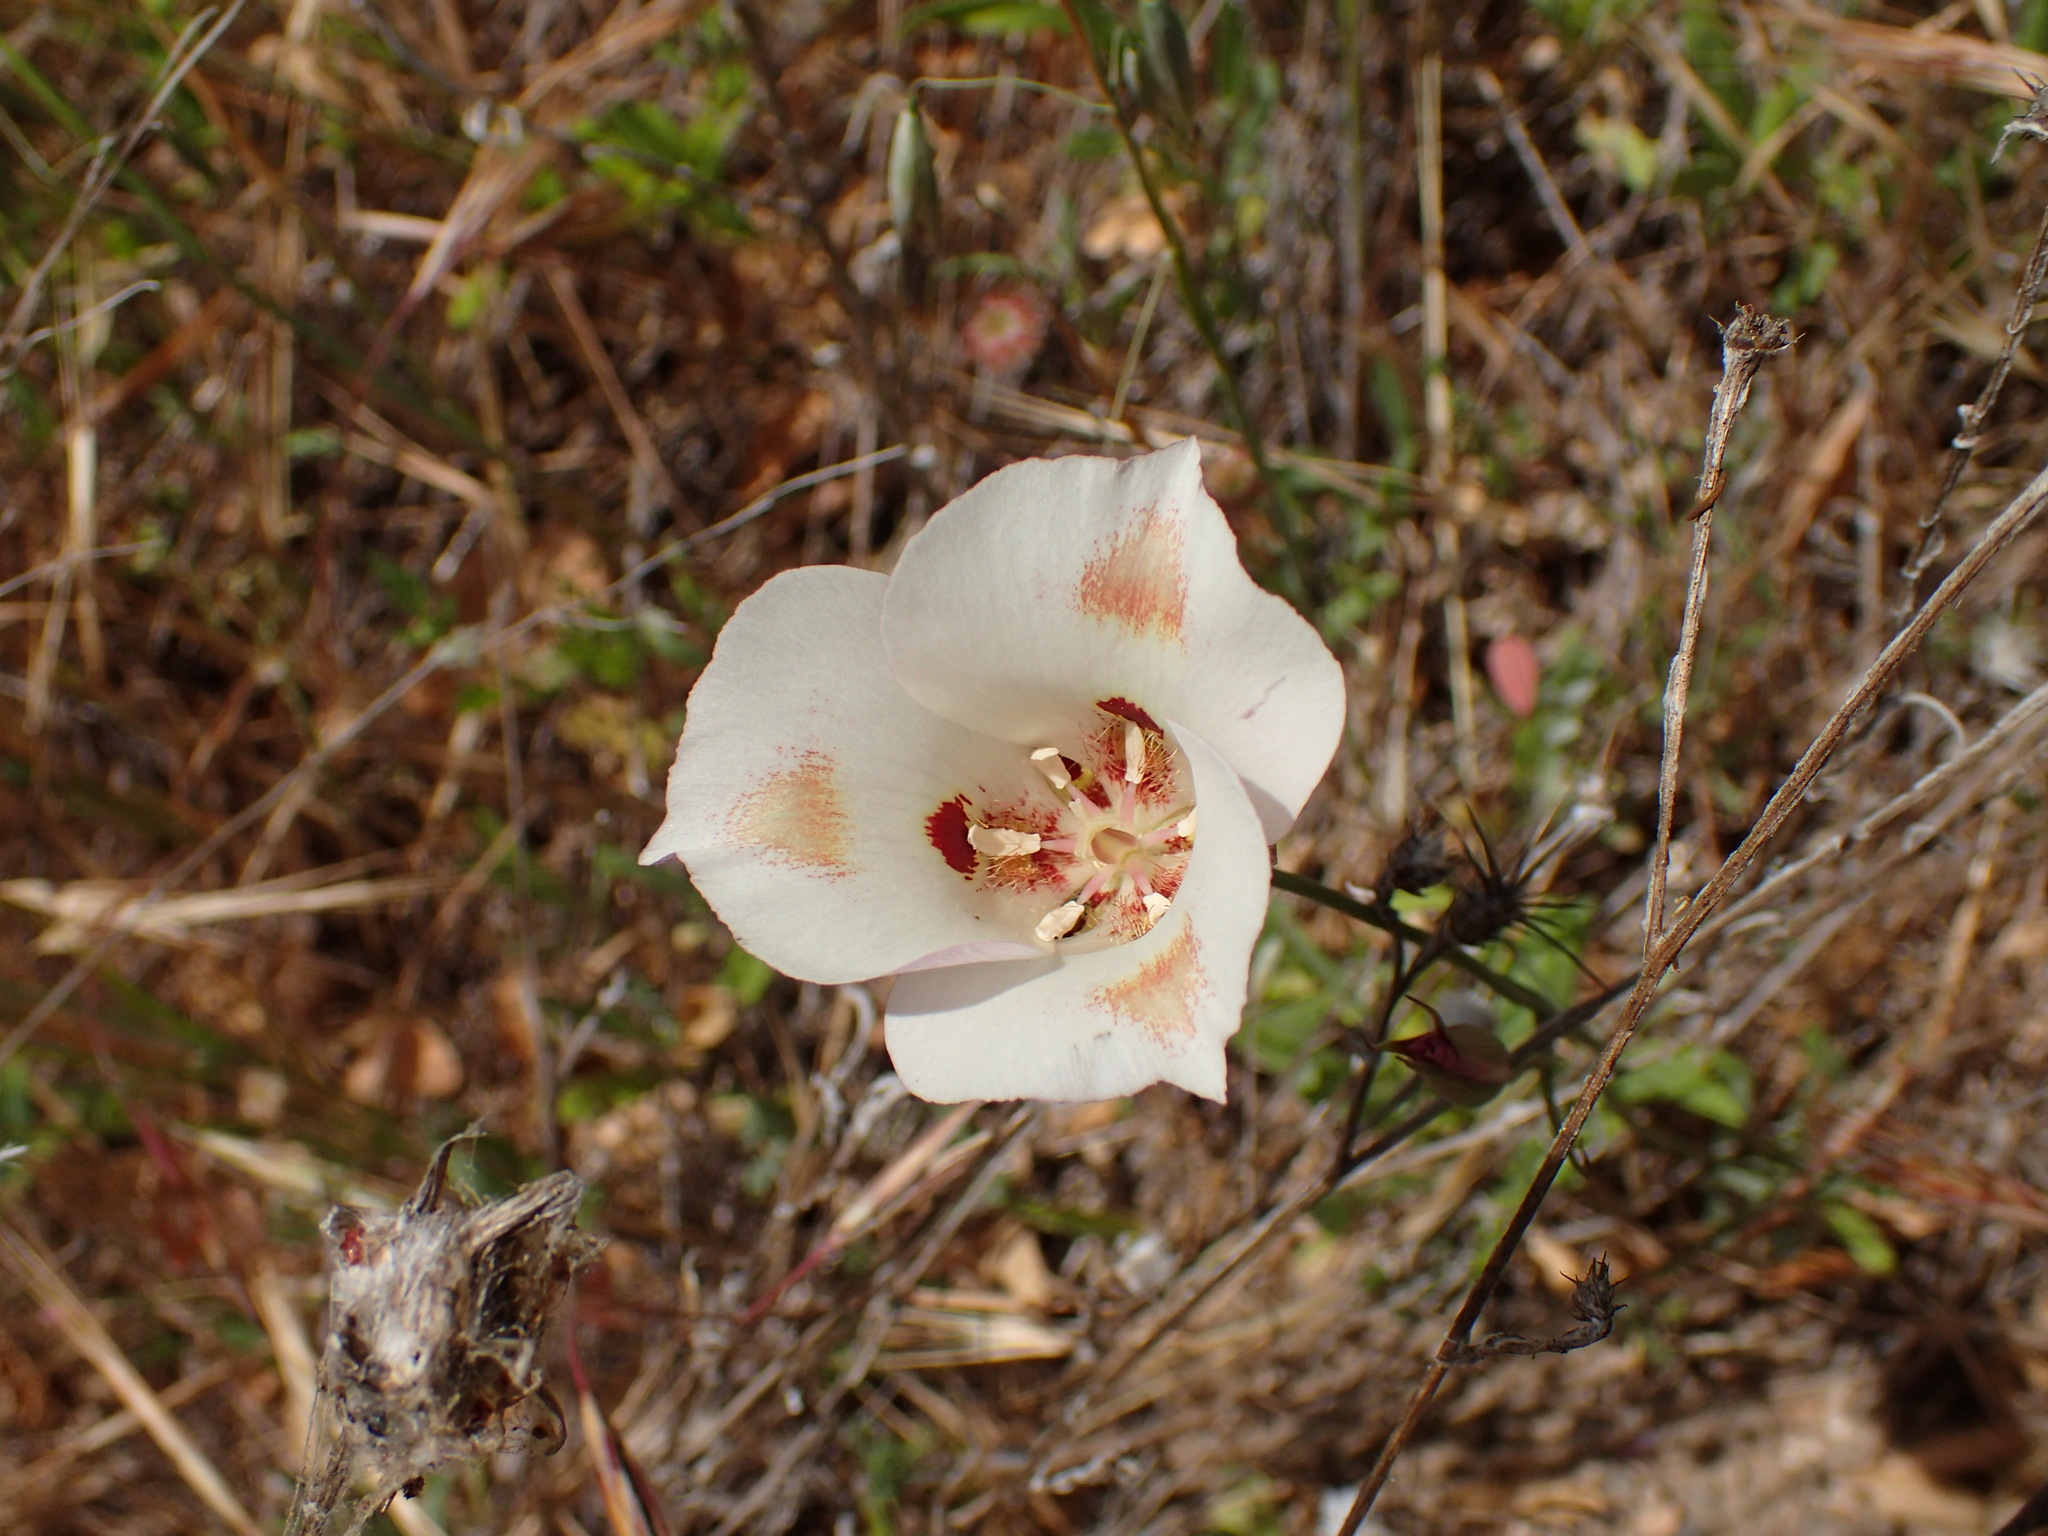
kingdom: Plantae
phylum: Tracheophyta
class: Liliopsida
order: Liliales
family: Liliaceae
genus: Calochortus
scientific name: Calochortus venustus
